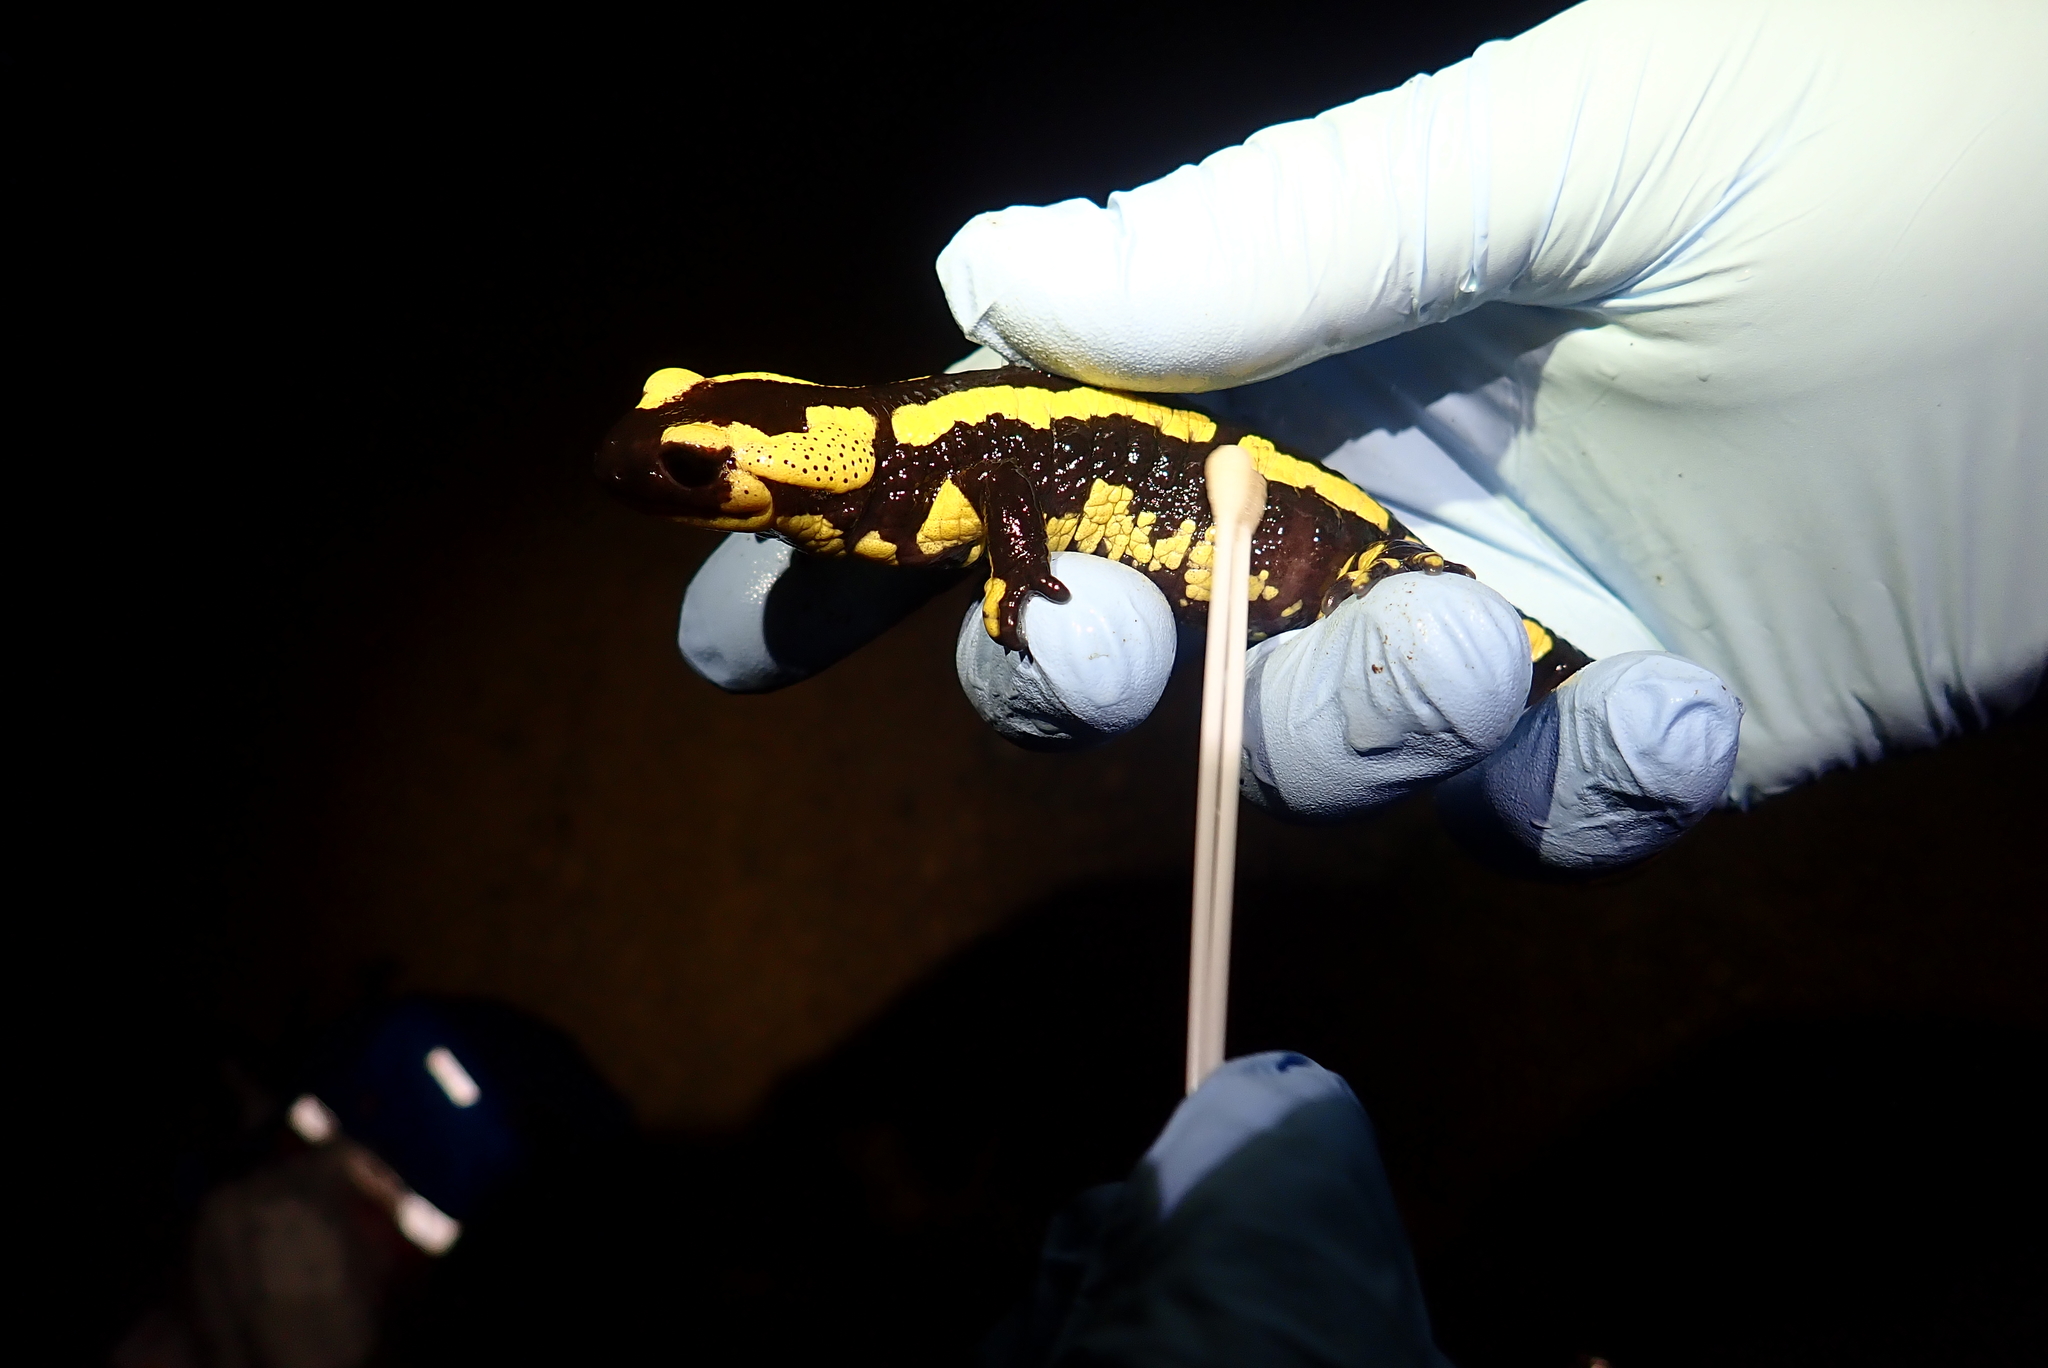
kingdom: Animalia
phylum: Chordata
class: Amphibia
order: Caudata
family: Salamandridae
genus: Salamandra
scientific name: Salamandra salamandra
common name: Fire salamander
